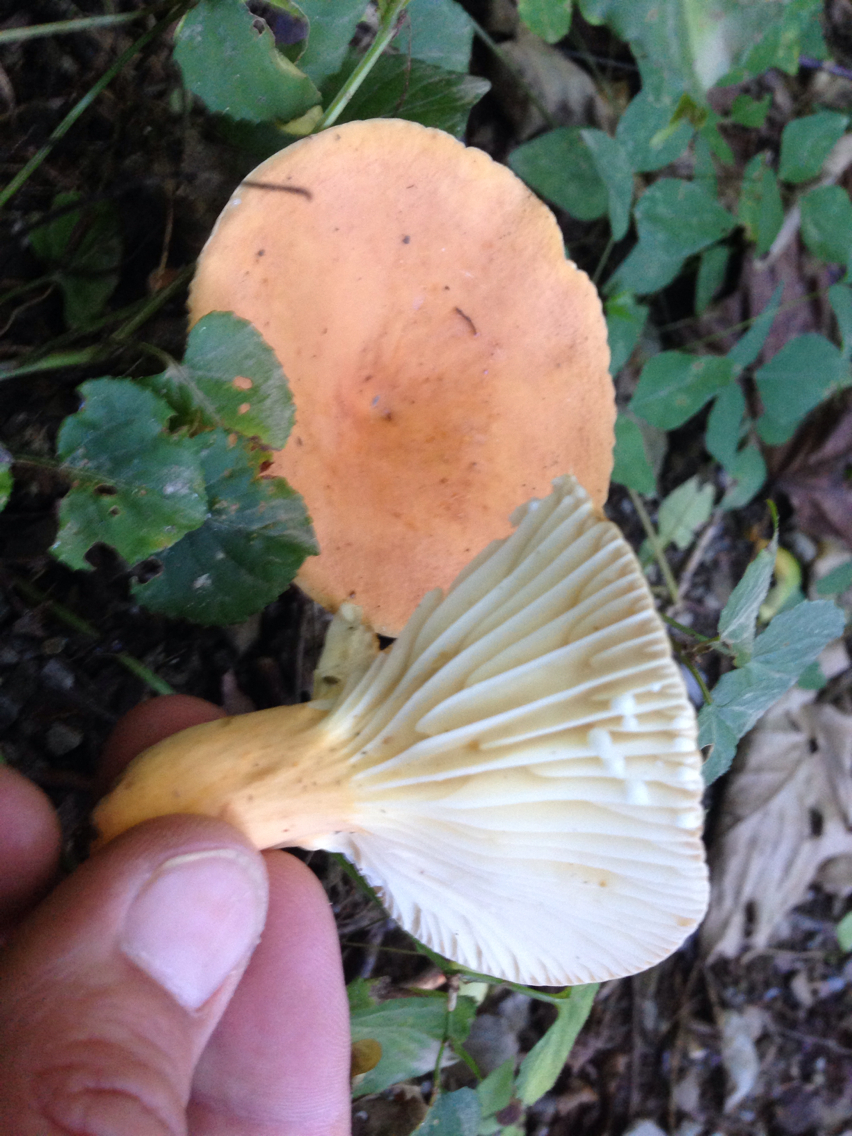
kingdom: Fungi
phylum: Basidiomycota
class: Agaricomycetes
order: Russulales
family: Russulaceae
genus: Lactarius
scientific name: Lactarius hygrophoroides
